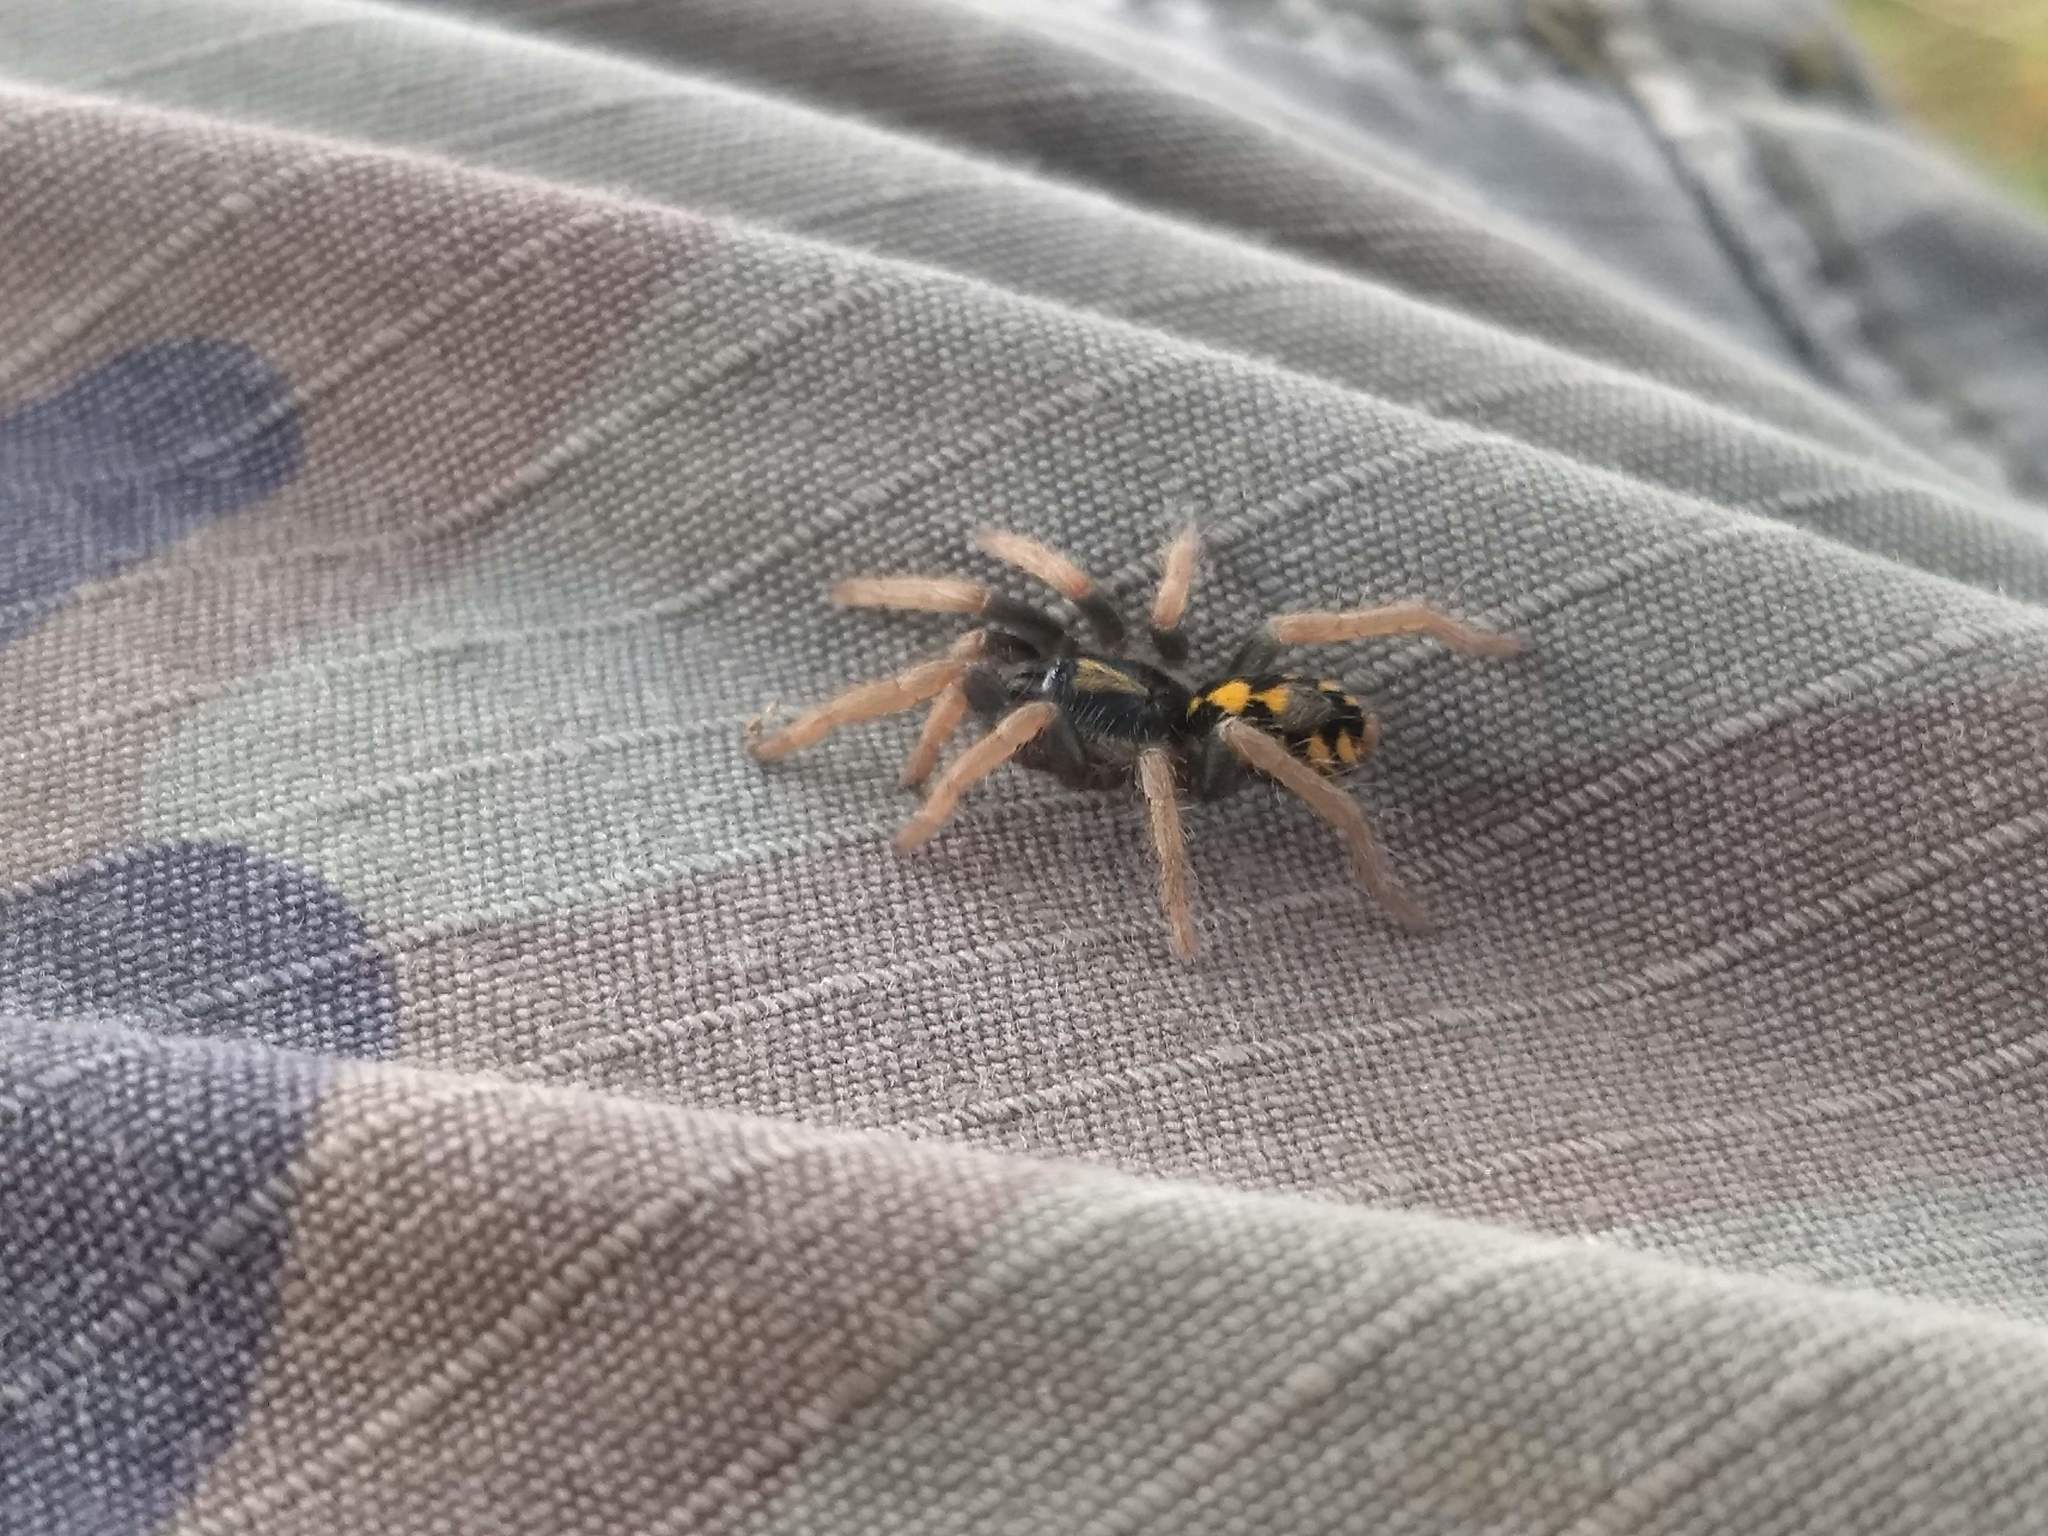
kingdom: Animalia
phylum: Arthropoda
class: Arachnida
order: Araneae
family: Theraphosidae
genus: Hapalopus
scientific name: Hapalopus formosus
